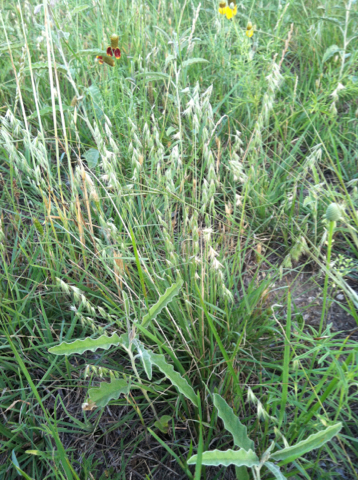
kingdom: Plantae
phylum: Tracheophyta
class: Liliopsida
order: Poales
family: Poaceae
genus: Bouteloua
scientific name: Bouteloua rigidiseta
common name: Texas grama
